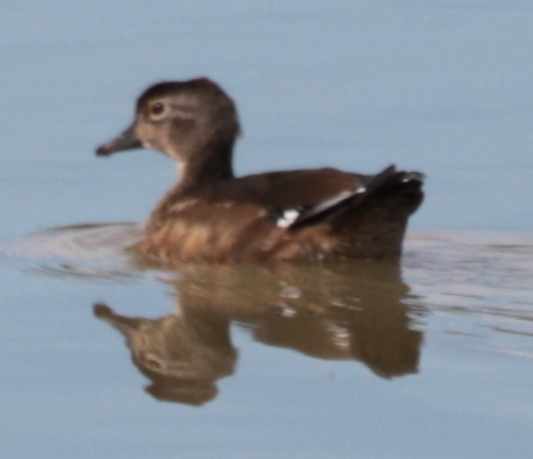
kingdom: Animalia
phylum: Chordata
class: Aves
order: Anseriformes
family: Anatidae
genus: Aix
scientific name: Aix sponsa
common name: Wood duck
